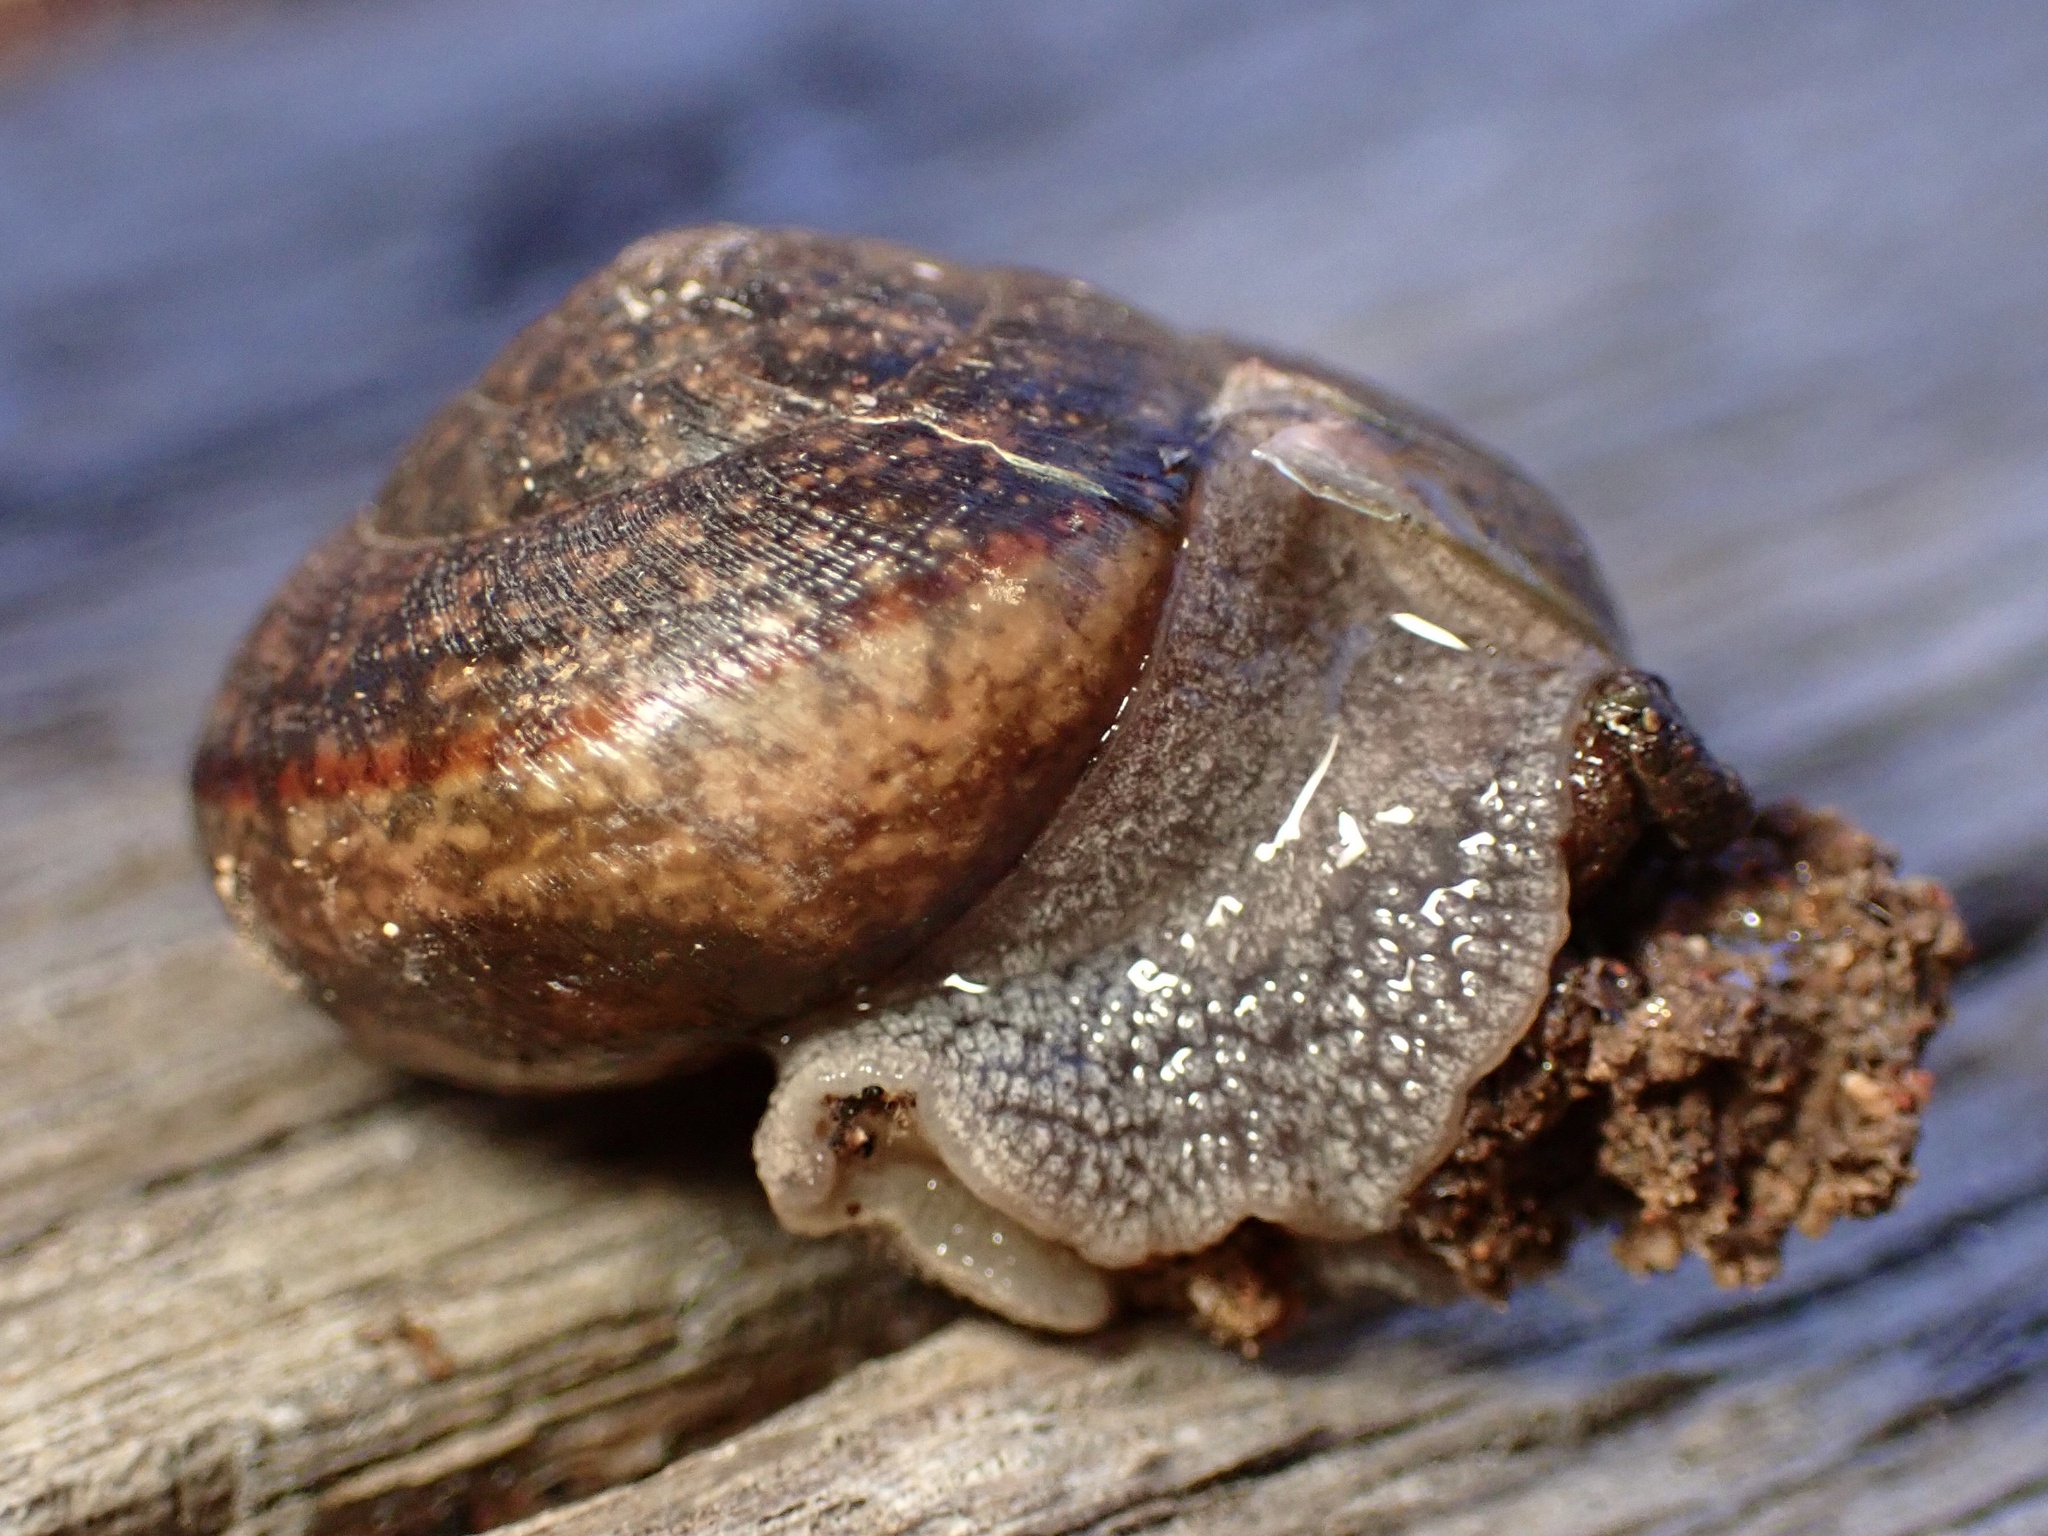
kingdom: Animalia
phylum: Mollusca
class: Gastropoda
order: Stylommatophora
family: Xanthonychidae
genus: Helminthoglypta
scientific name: Helminthoglypta nickliniana
